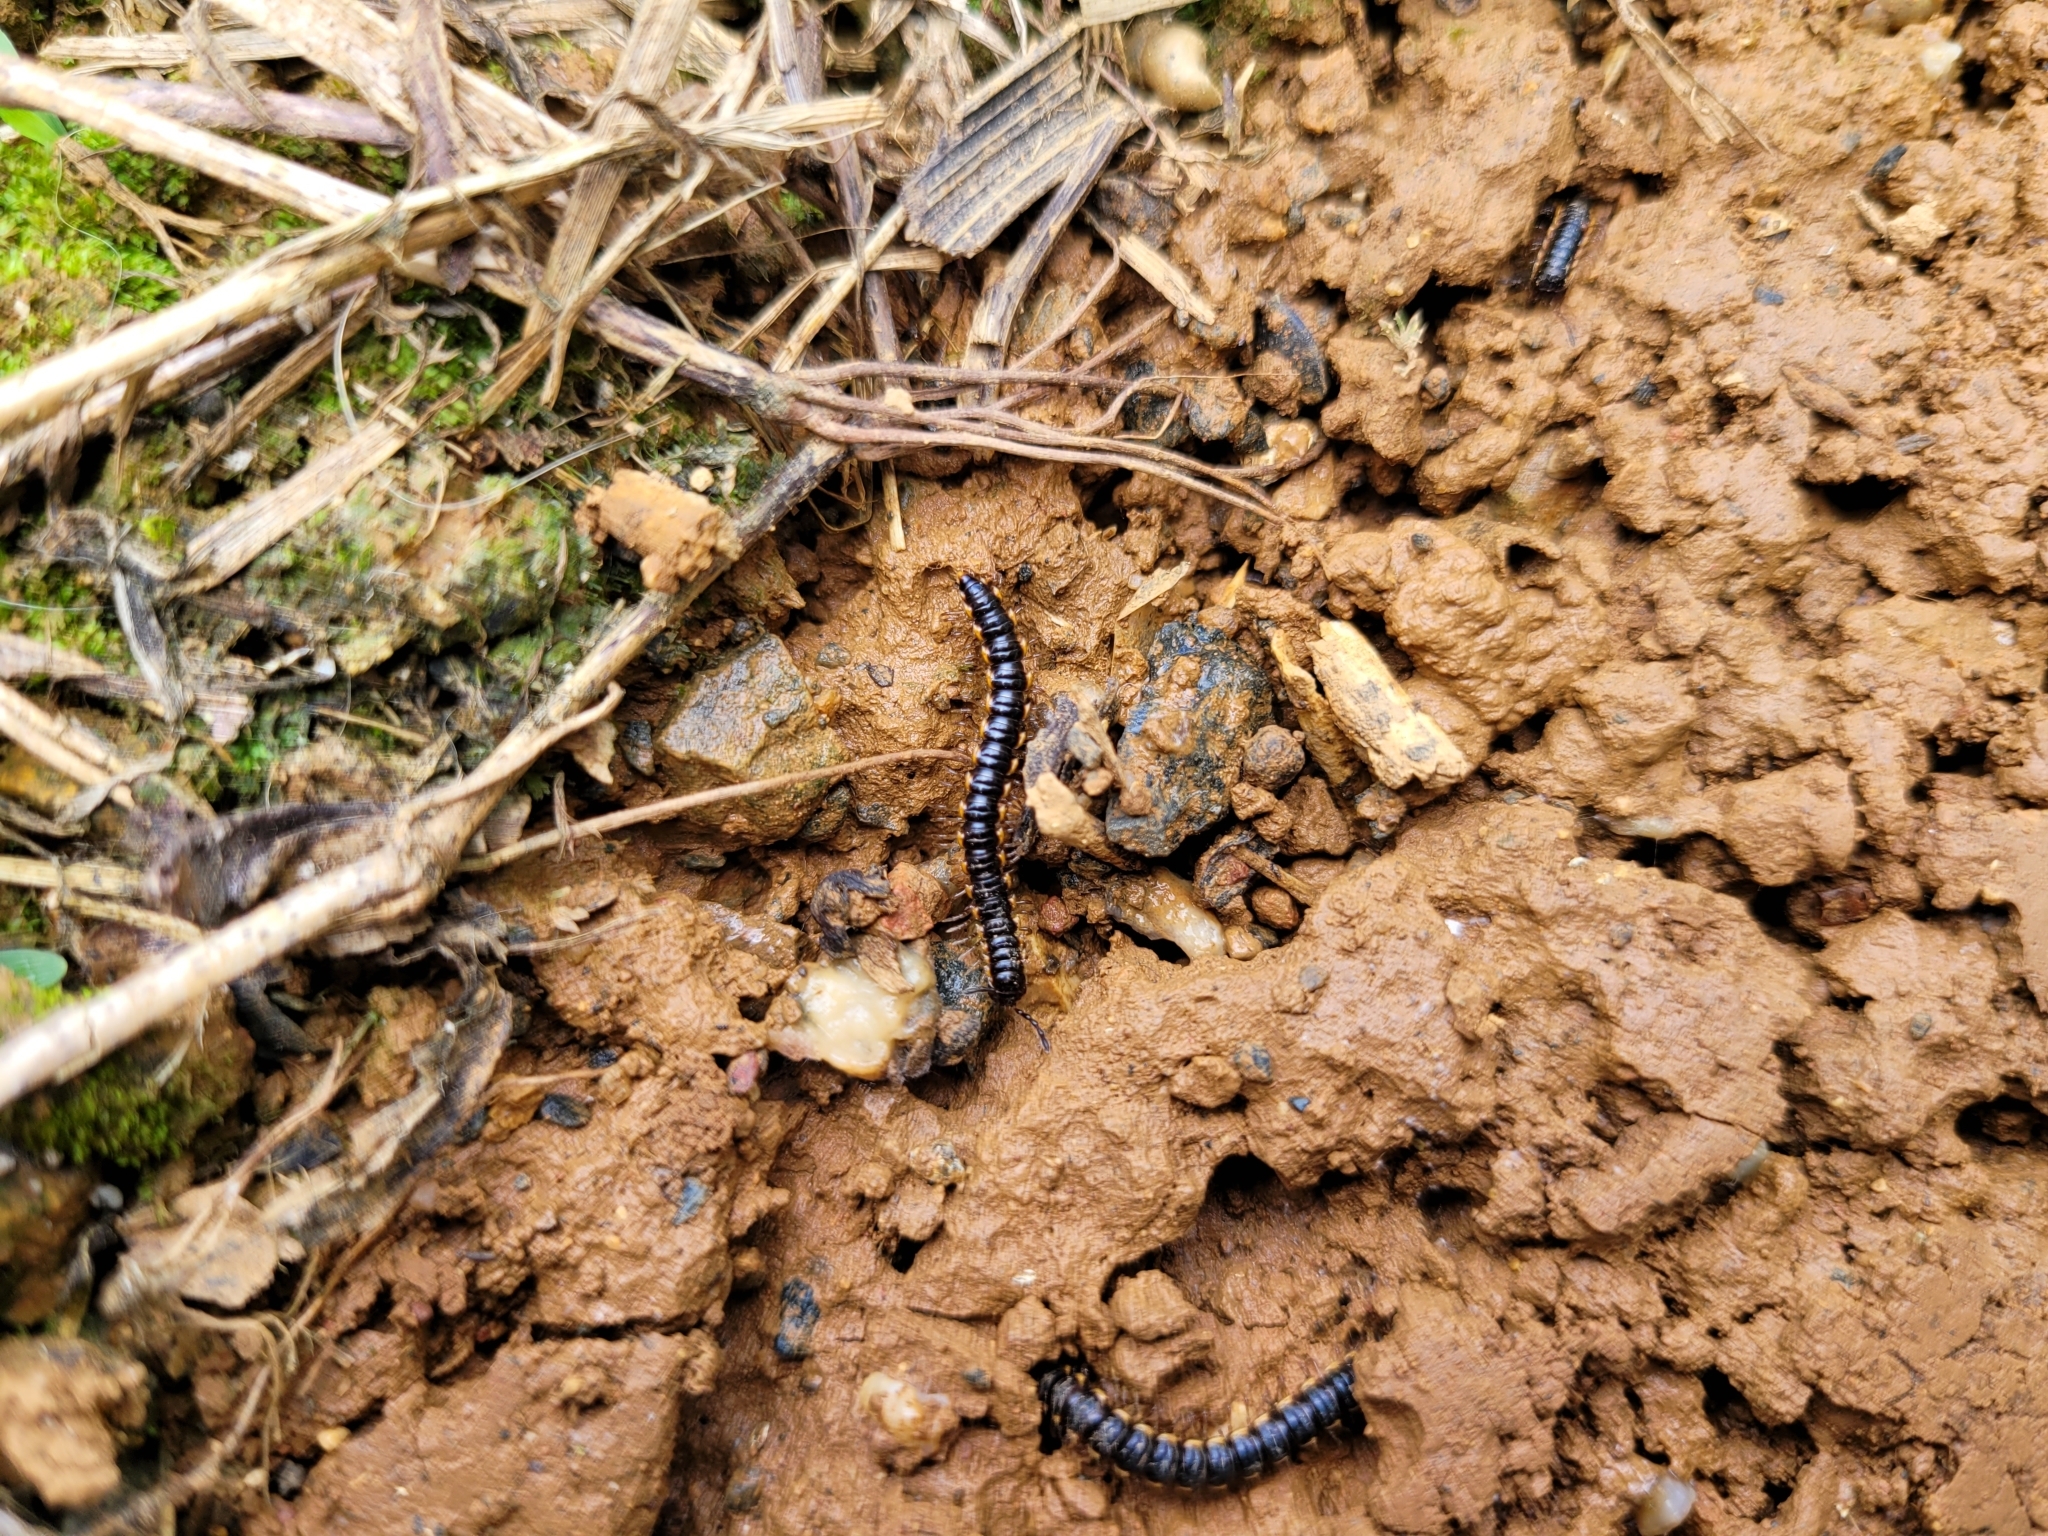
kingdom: Animalia
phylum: Arthropoda
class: Diplopoda
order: Polydesmida
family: Paradoxosomatidae
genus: Orthomorpha
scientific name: Orthomorpha coarctata
